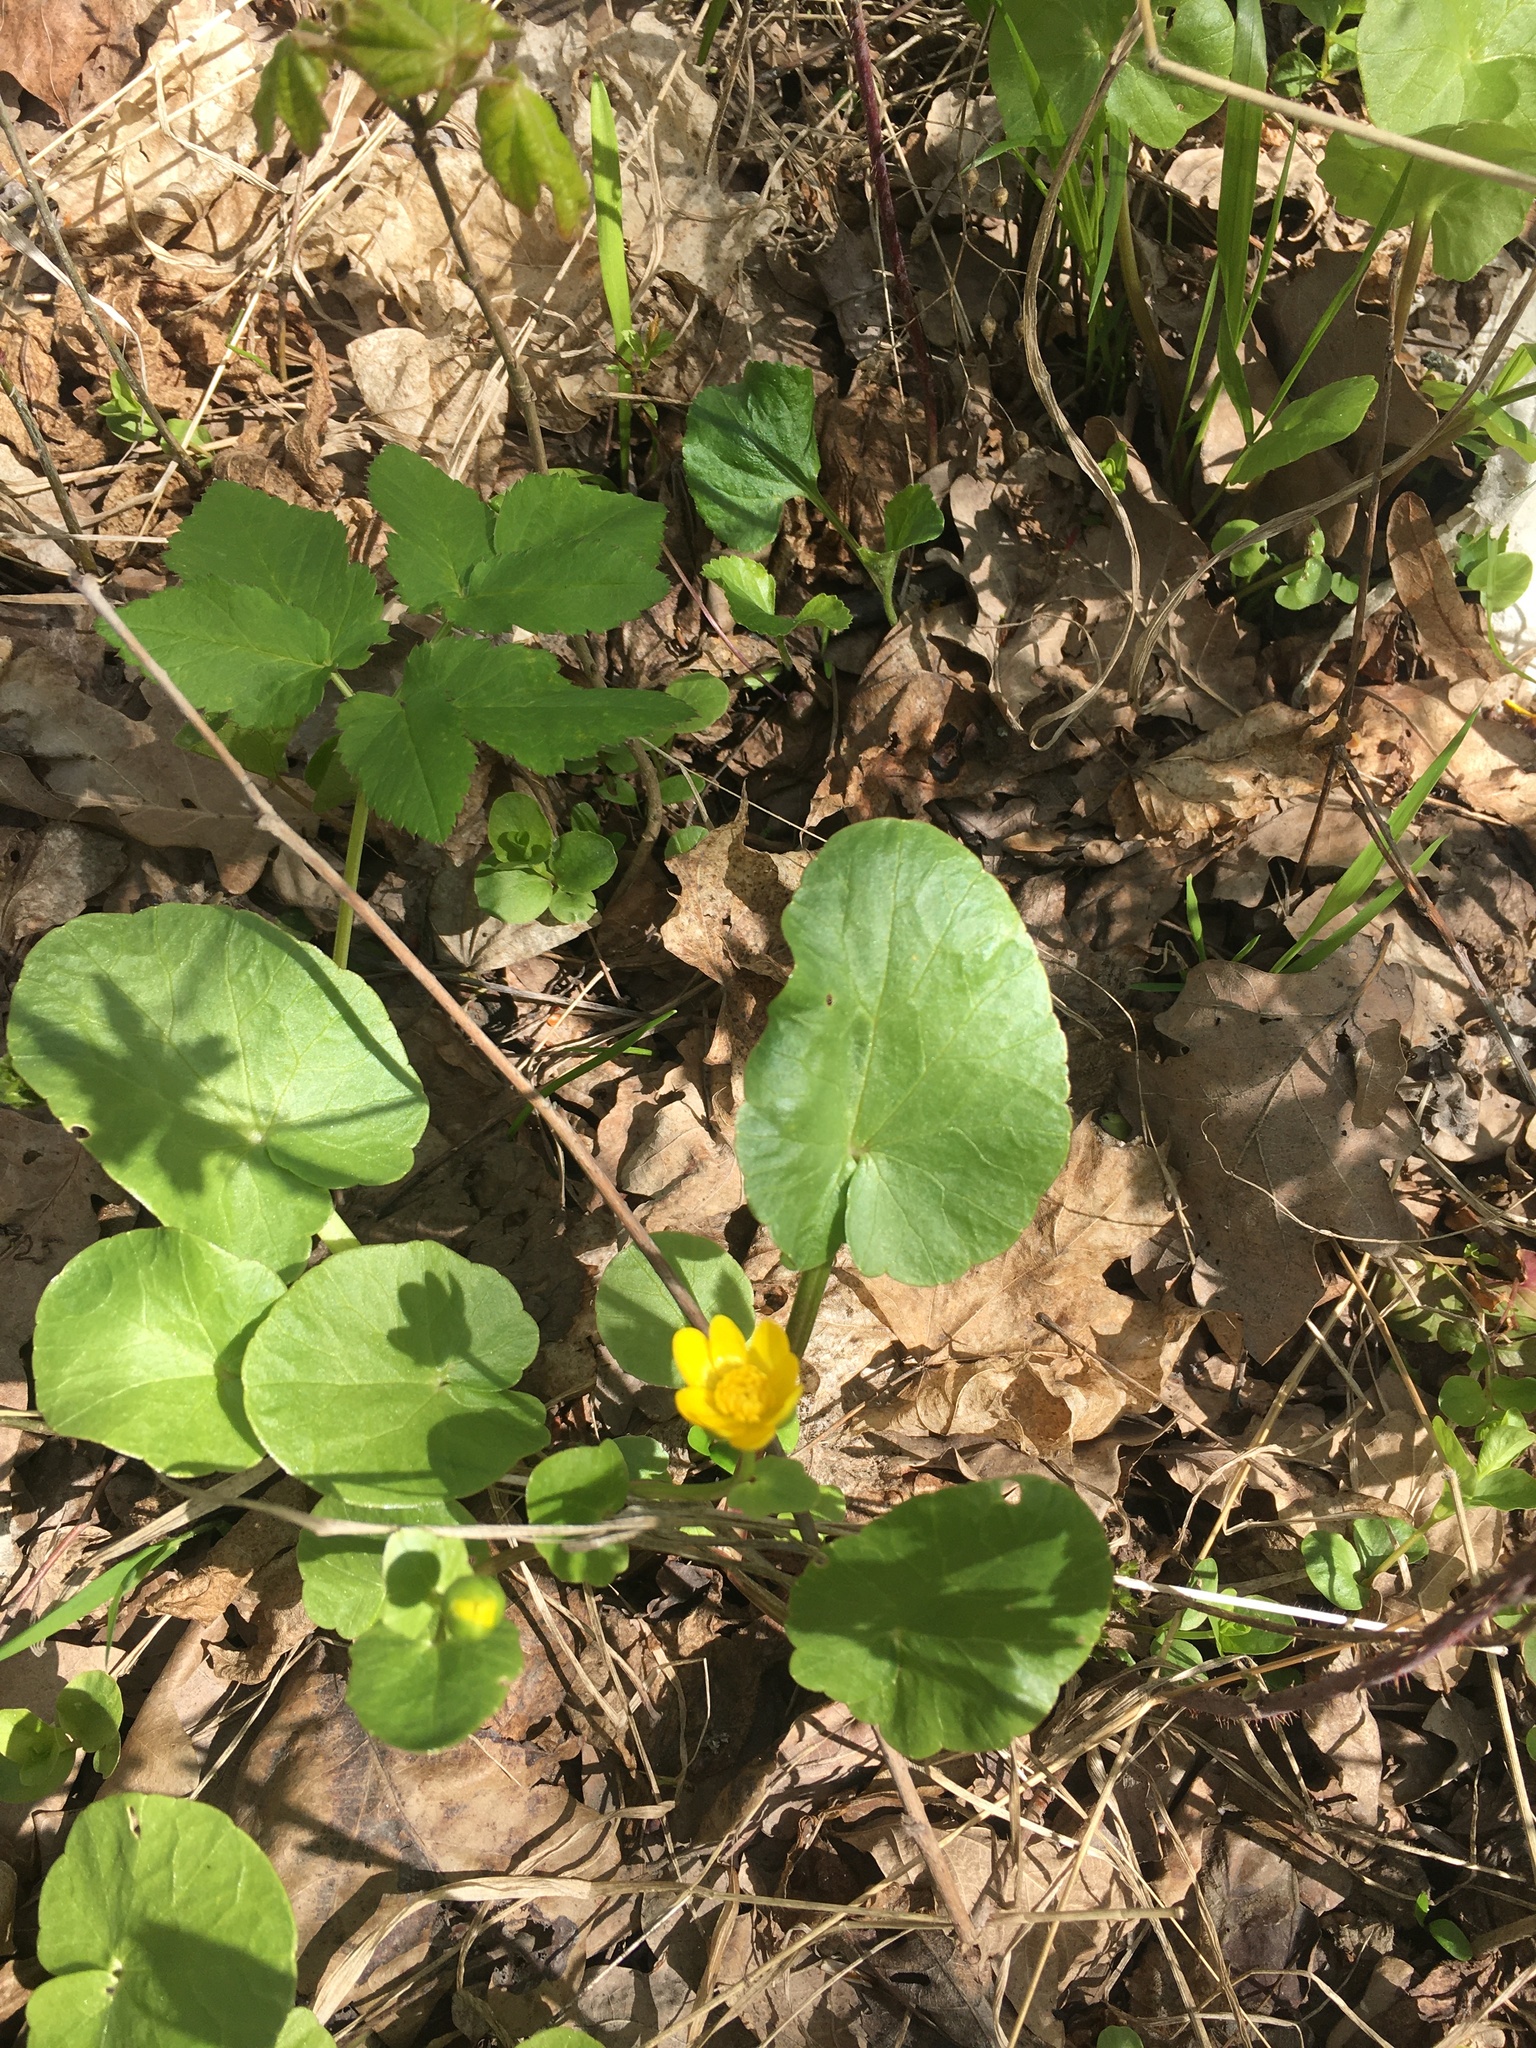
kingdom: Plantae
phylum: Tracheophyta
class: Magnoliopsida
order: Ranunculales
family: Ranunculaceae
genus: Ficaria
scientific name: Ficaria verna
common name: Lesser celandine
